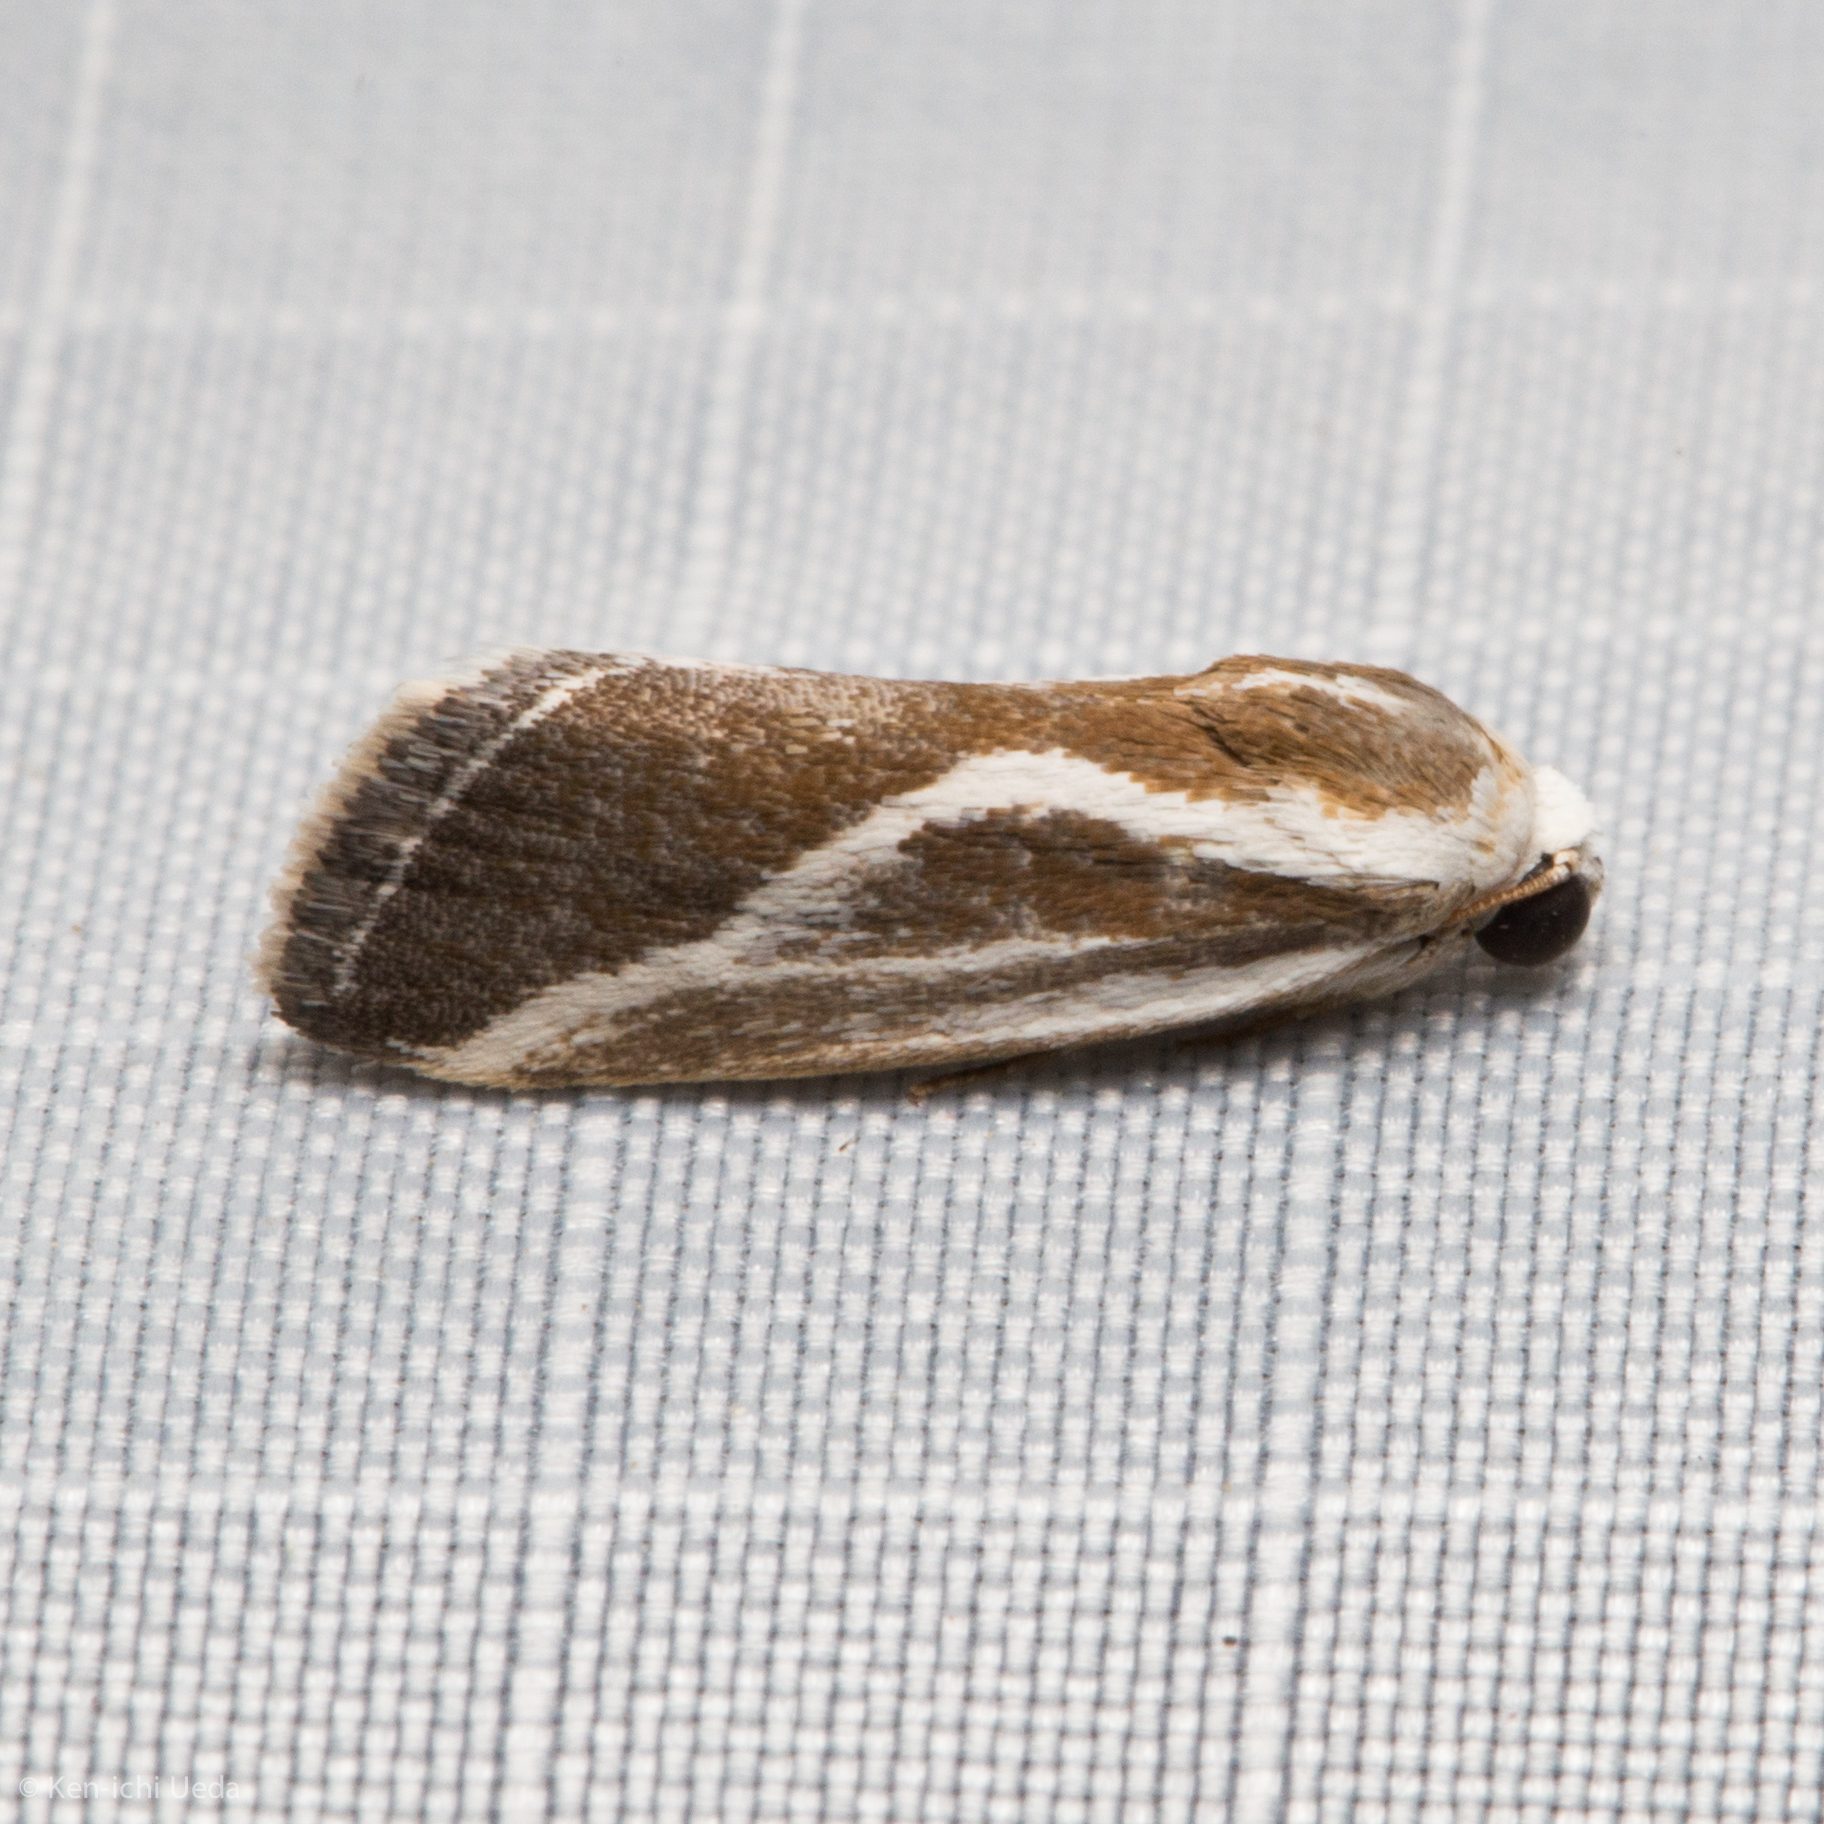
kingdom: Animalia
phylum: Arthropoda
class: Insecta
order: Lepidoptera
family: Noctuidae
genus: Acontia
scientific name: Acontia alata
